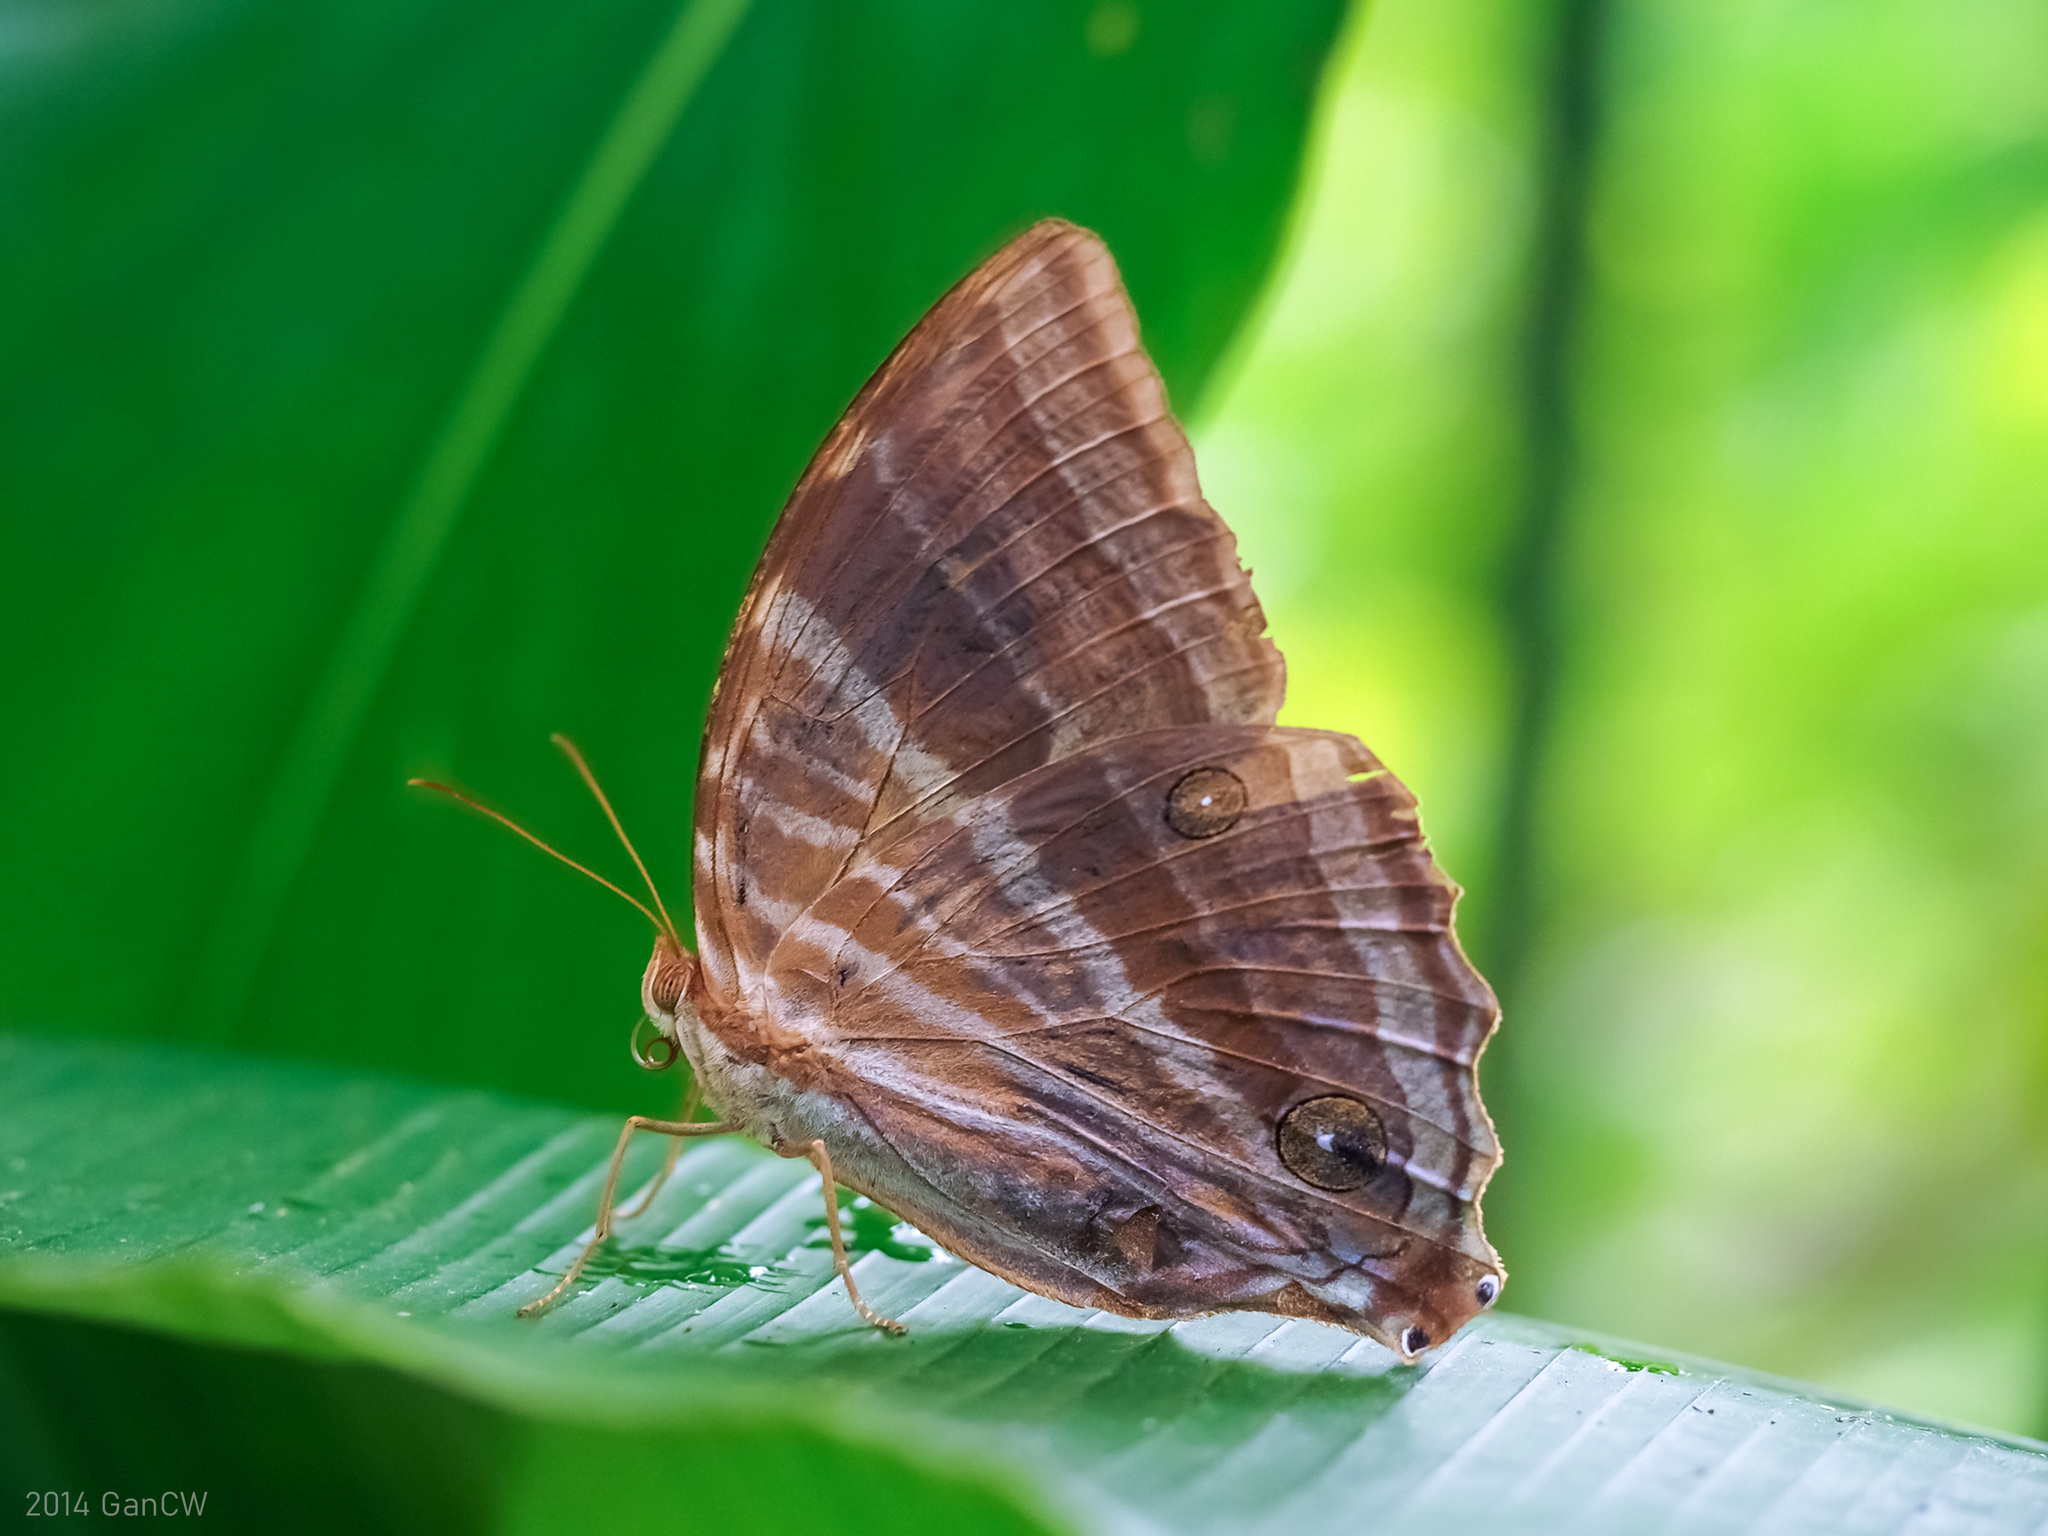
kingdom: Animalia
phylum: Arthropoda
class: Insecta
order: Lepidoptera
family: Nymphalidae
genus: Amathusia
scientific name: Amathusia phidippus
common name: Palm king
